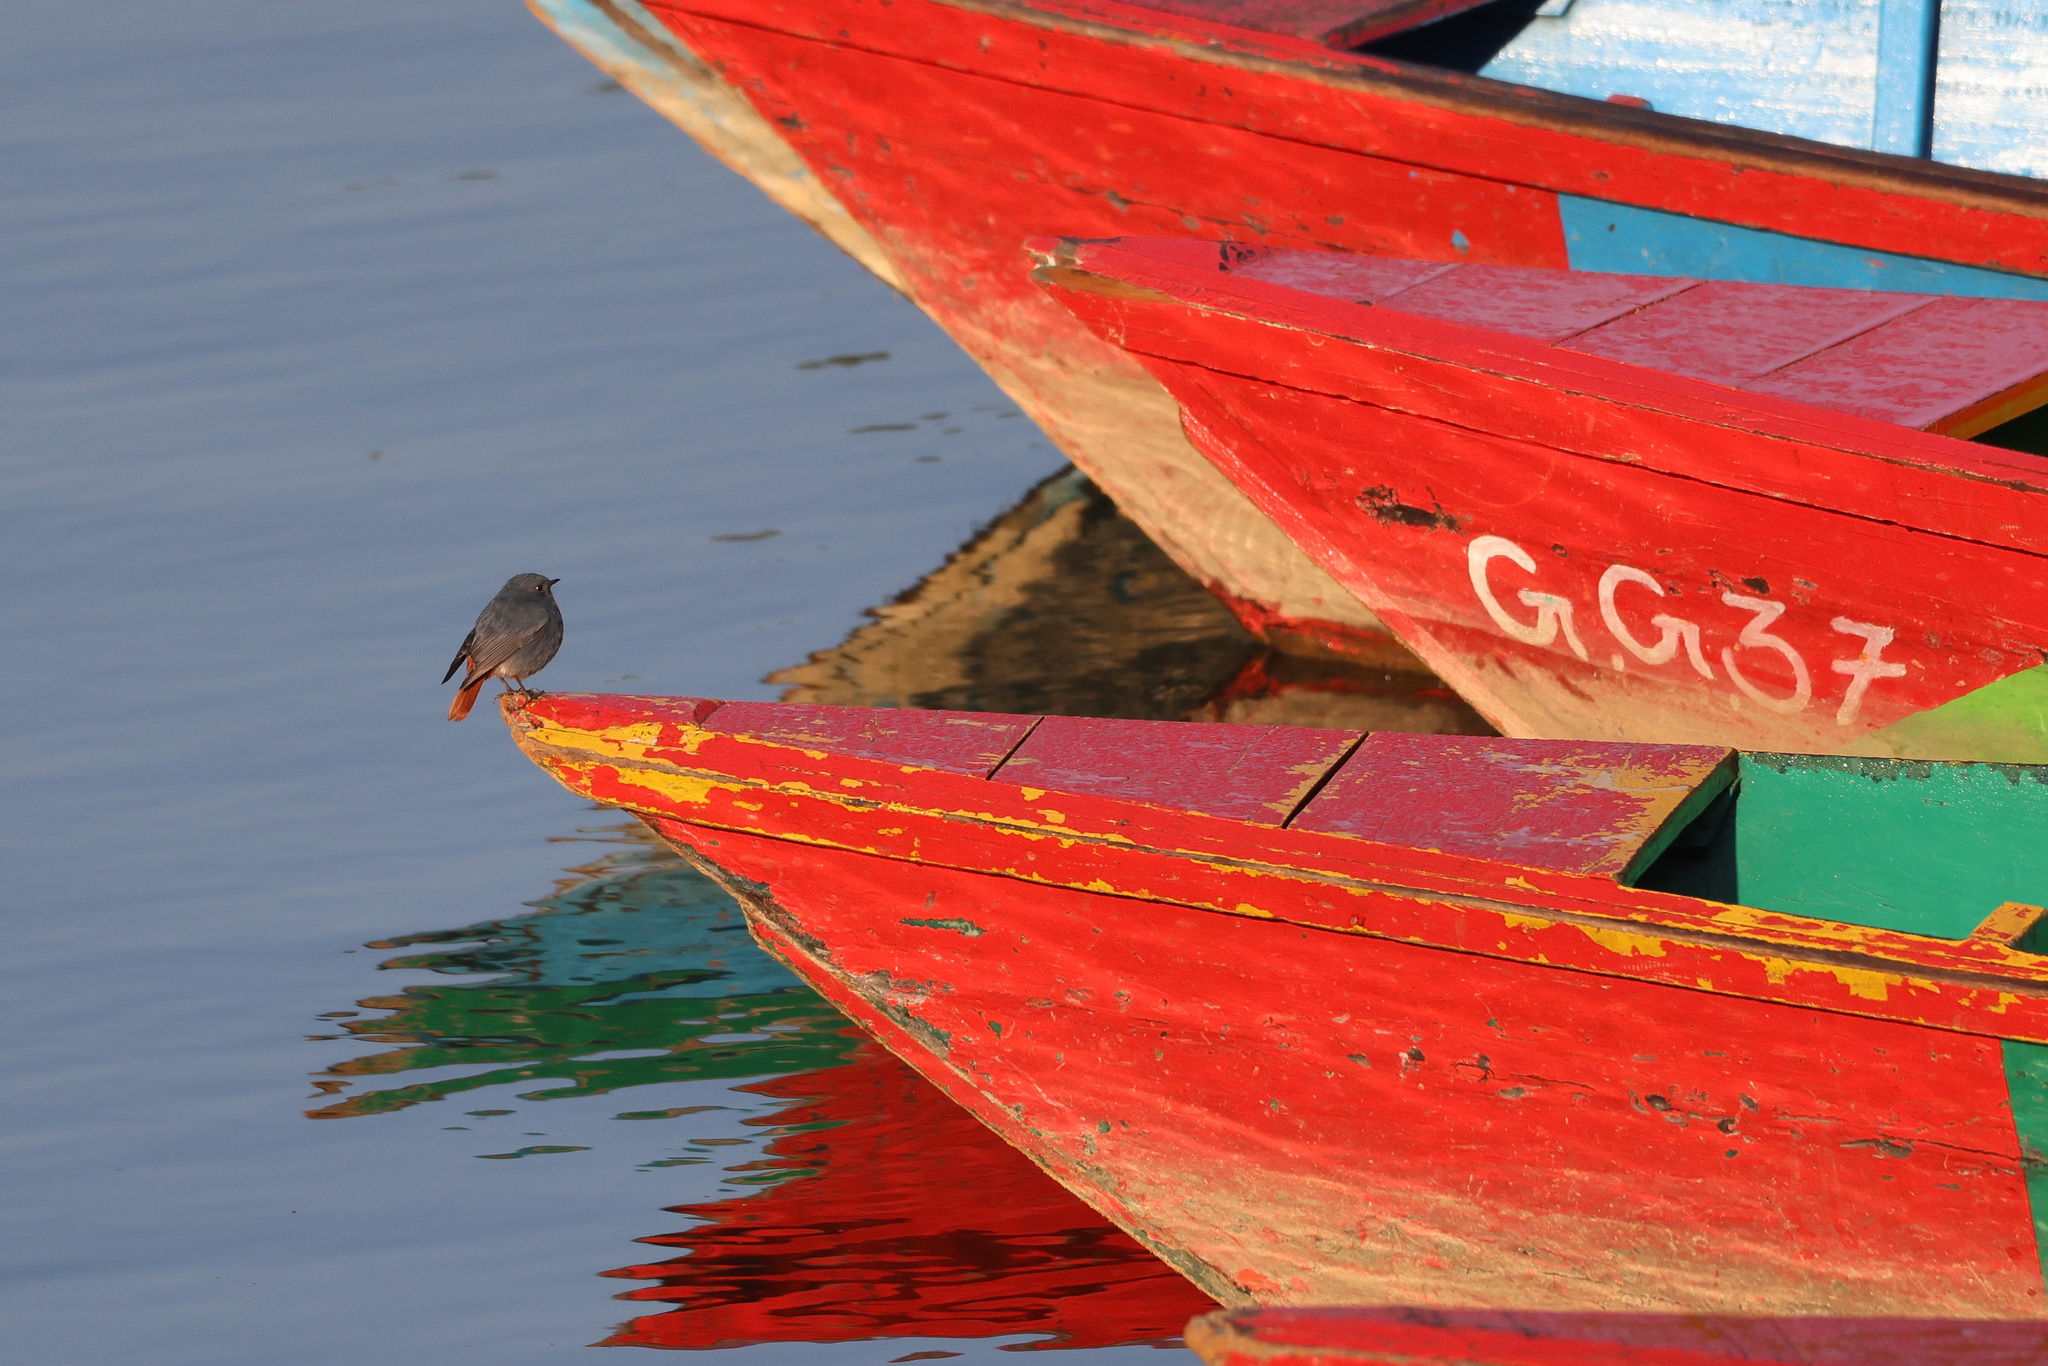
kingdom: Animalia
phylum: Chordata
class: Aves
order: Passeriformes
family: Muscicapidae
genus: Phoenicurus
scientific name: Phoenicurus fuliginosus
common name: Plumbeous water redstart
